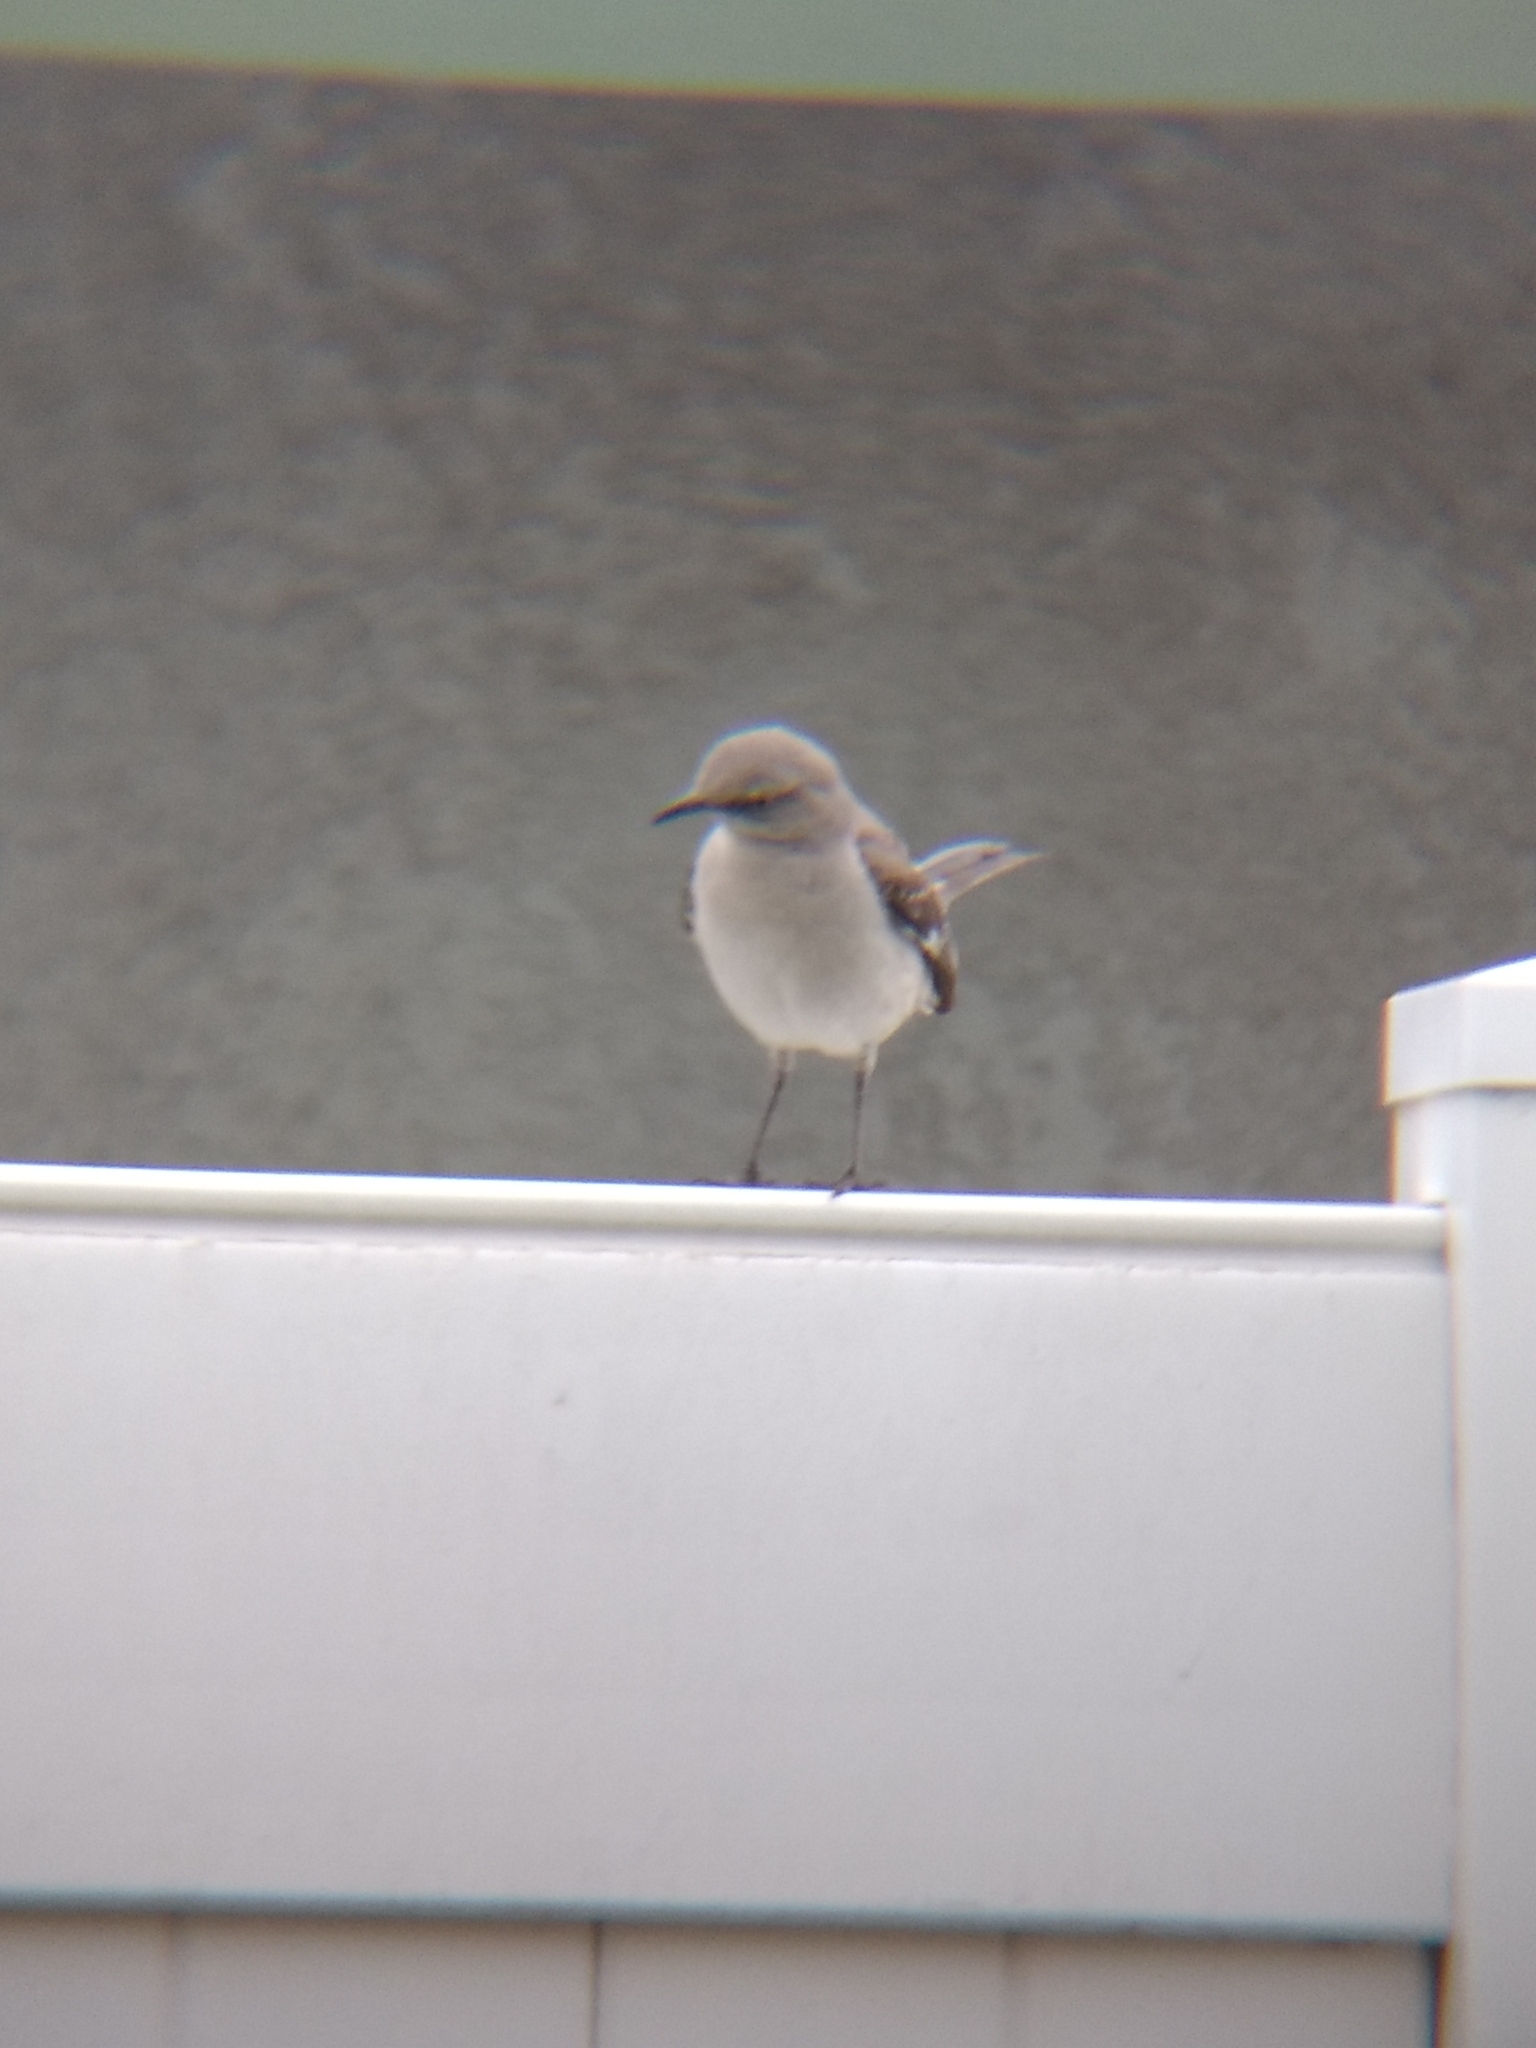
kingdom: Animalia
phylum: Chordata
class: Aves
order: Passeriformes
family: Mimidae
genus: Mimus
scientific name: Mimus polyglottos
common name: Northern mockingbird
